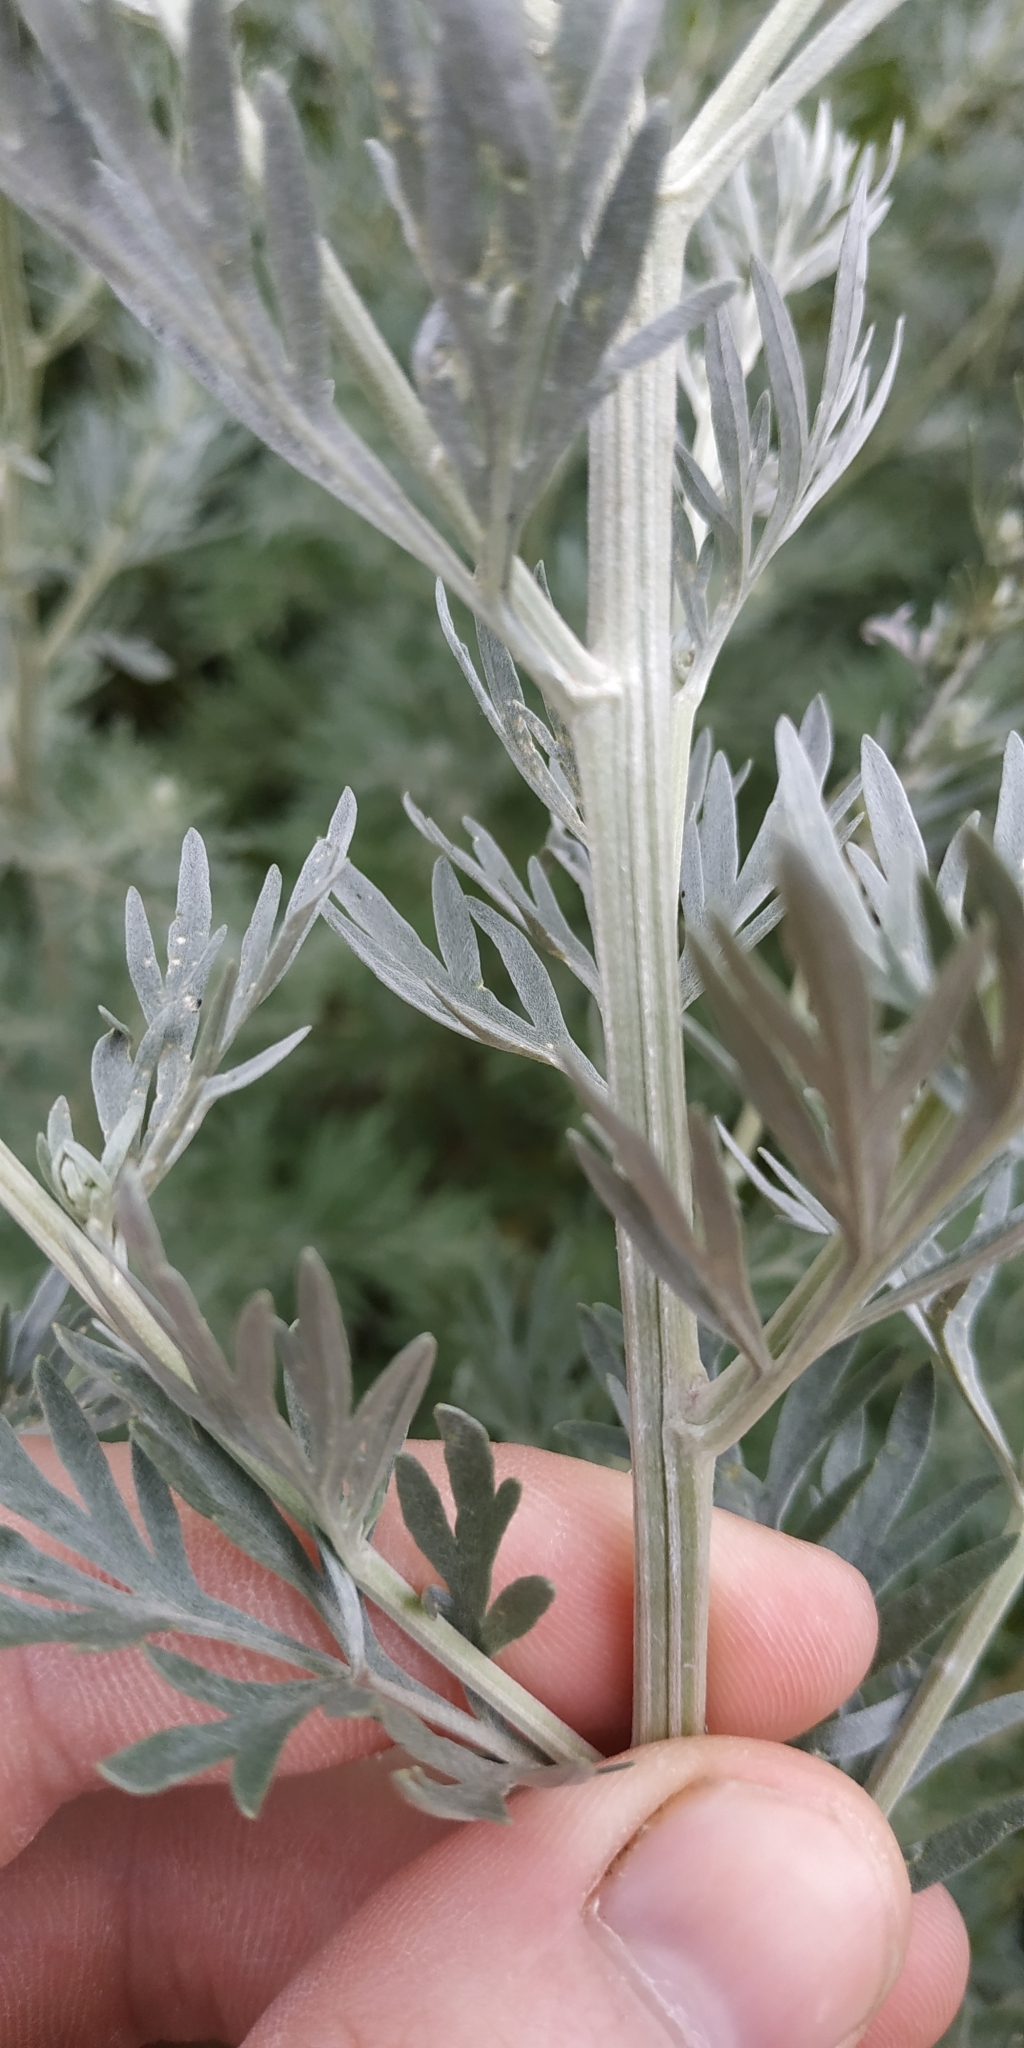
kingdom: Plantae
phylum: Tracheophyta
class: Magnoliopsida
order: Asterales
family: Asteraceae
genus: Artemisia
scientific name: Artemisia absinthium
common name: Wormwood
